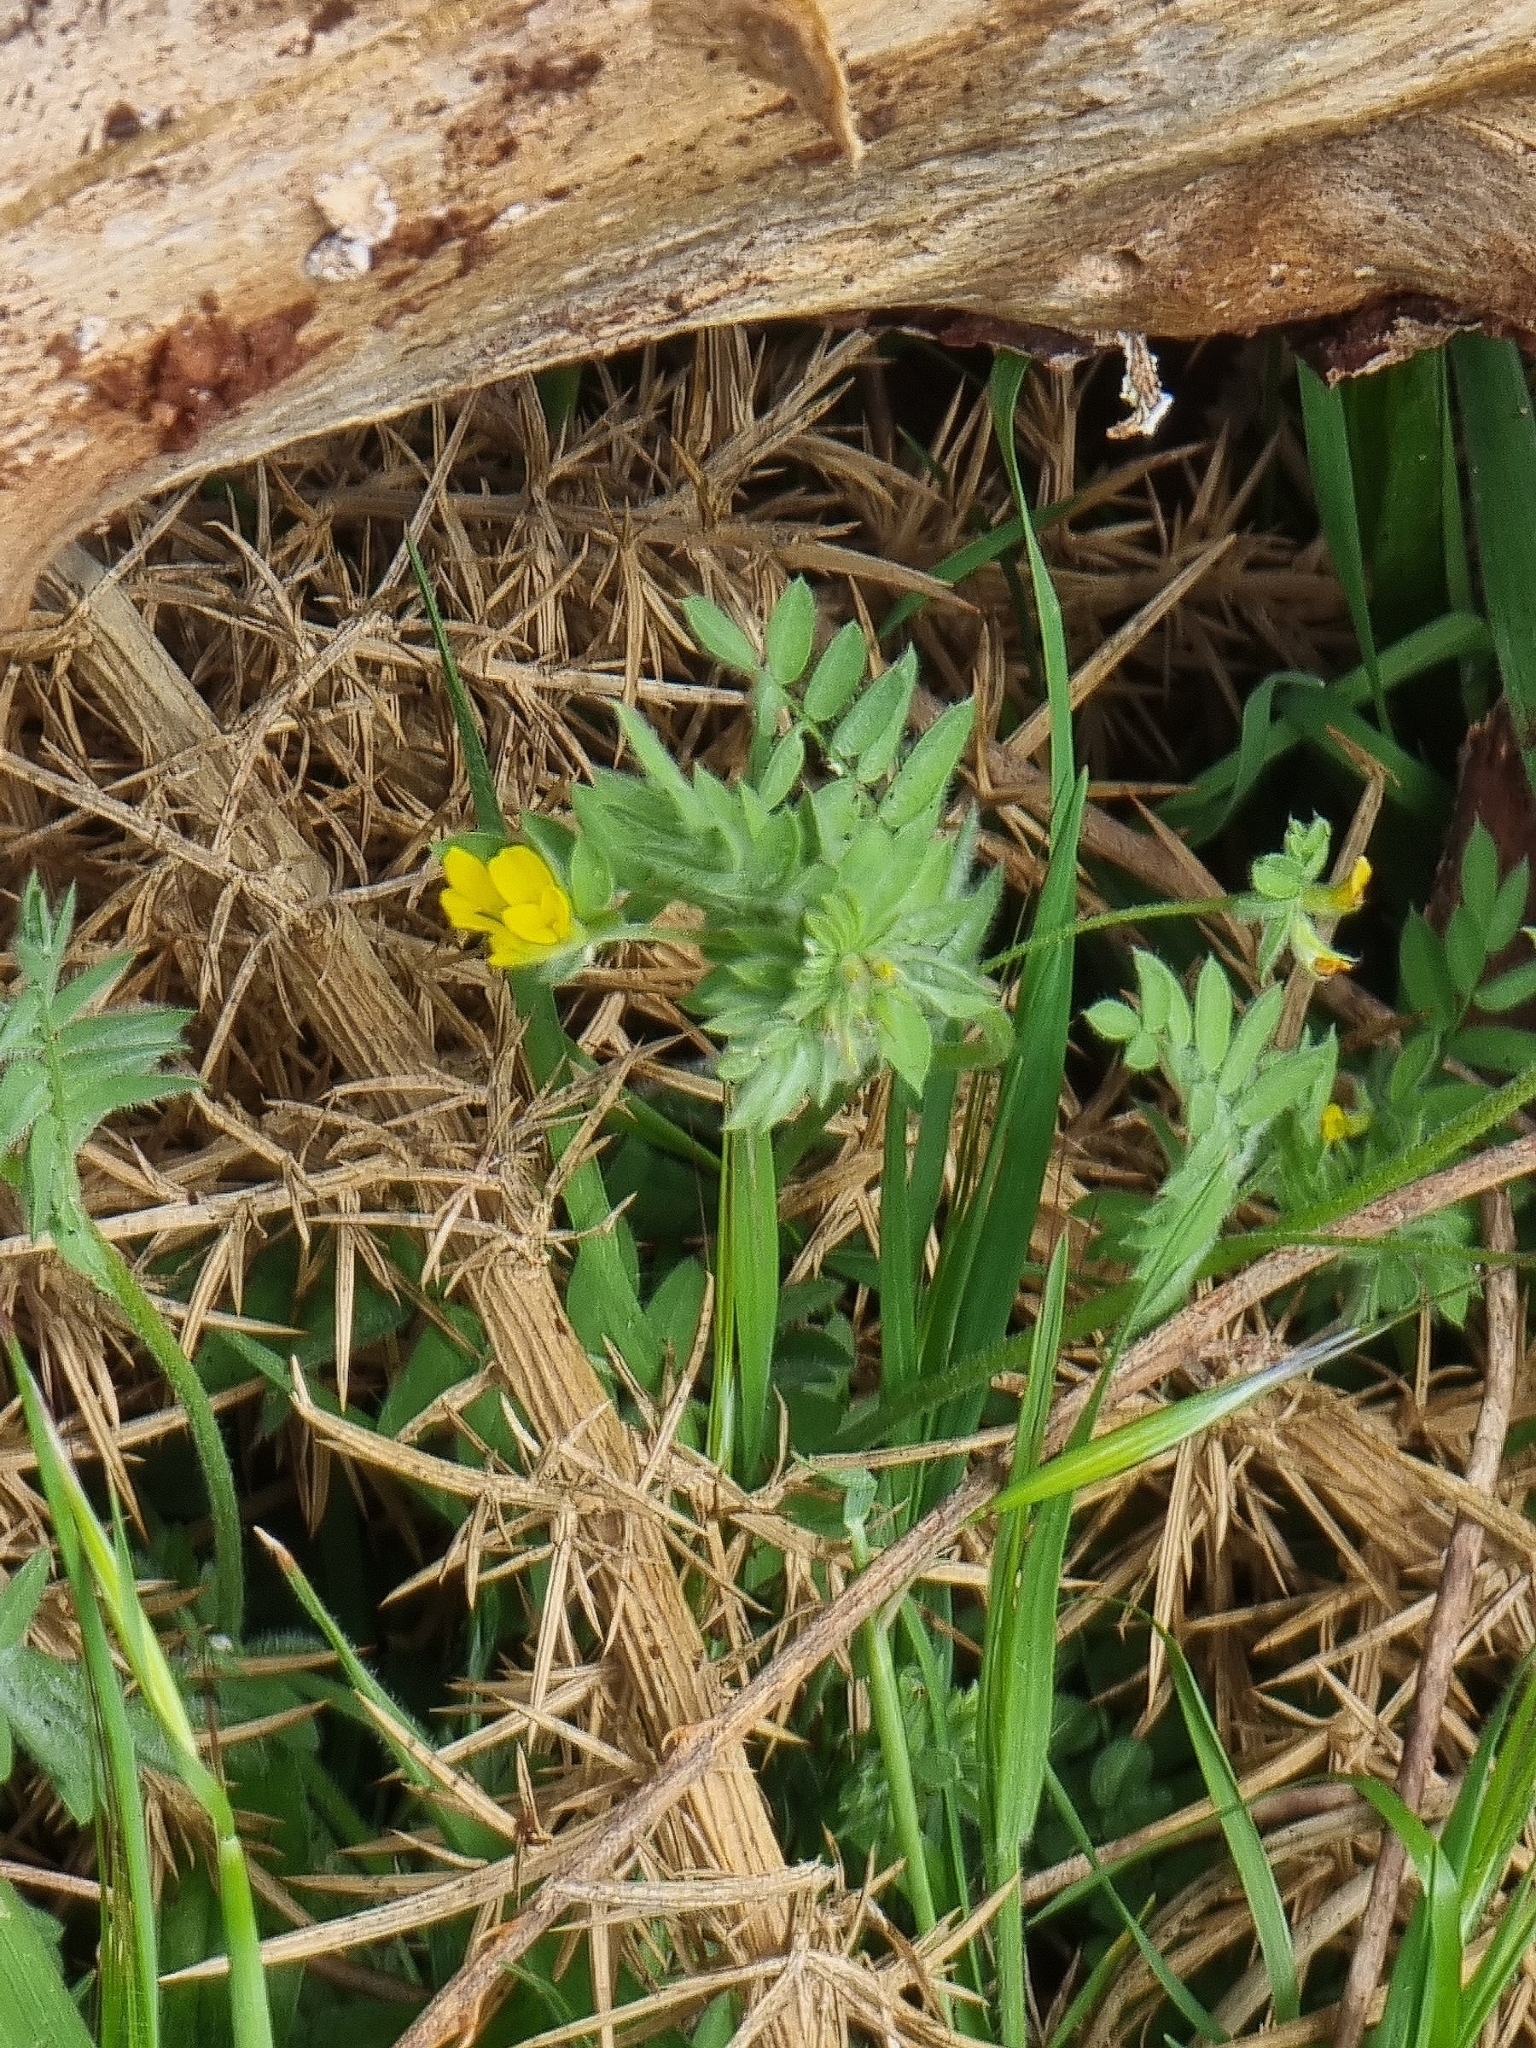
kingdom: Plantae
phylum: Tracheophyta
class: Magnoliopsida
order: Fabales
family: Fabaceae
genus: Ornithopus
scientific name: Ornithopus compressus
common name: Yellow serradella
